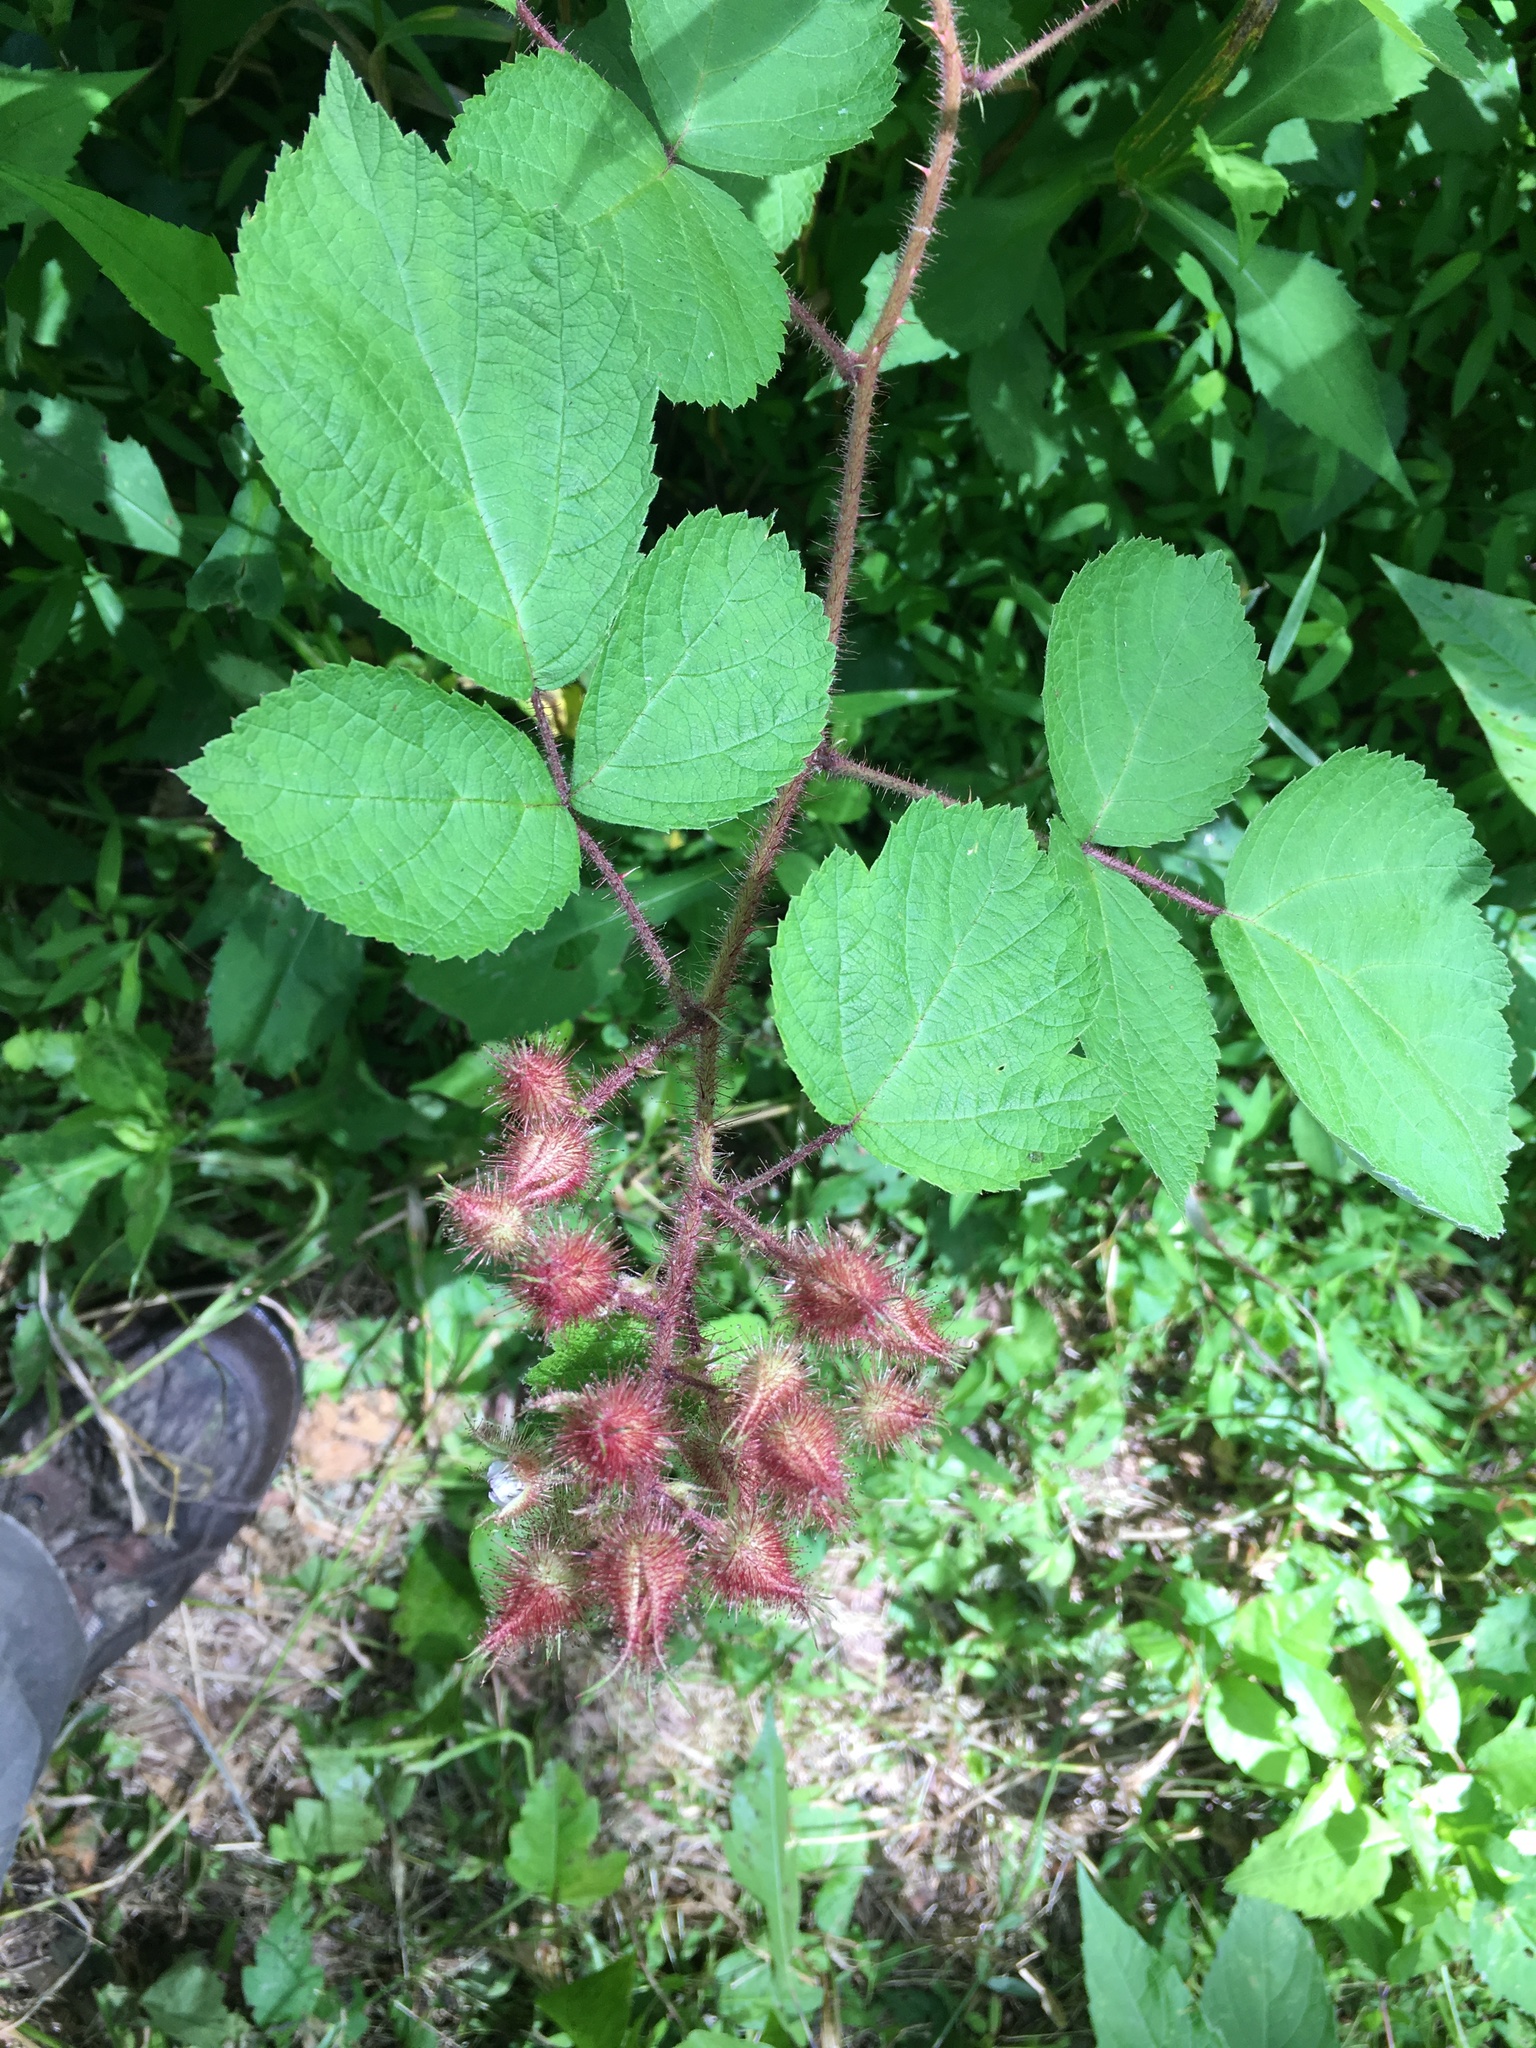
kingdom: Plantae
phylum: Tracheophyta
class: Magnoliopsida
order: Rosales
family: Rosaceae
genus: Rubus
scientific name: Rubus phoenicolasius
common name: Japanese wineberry
